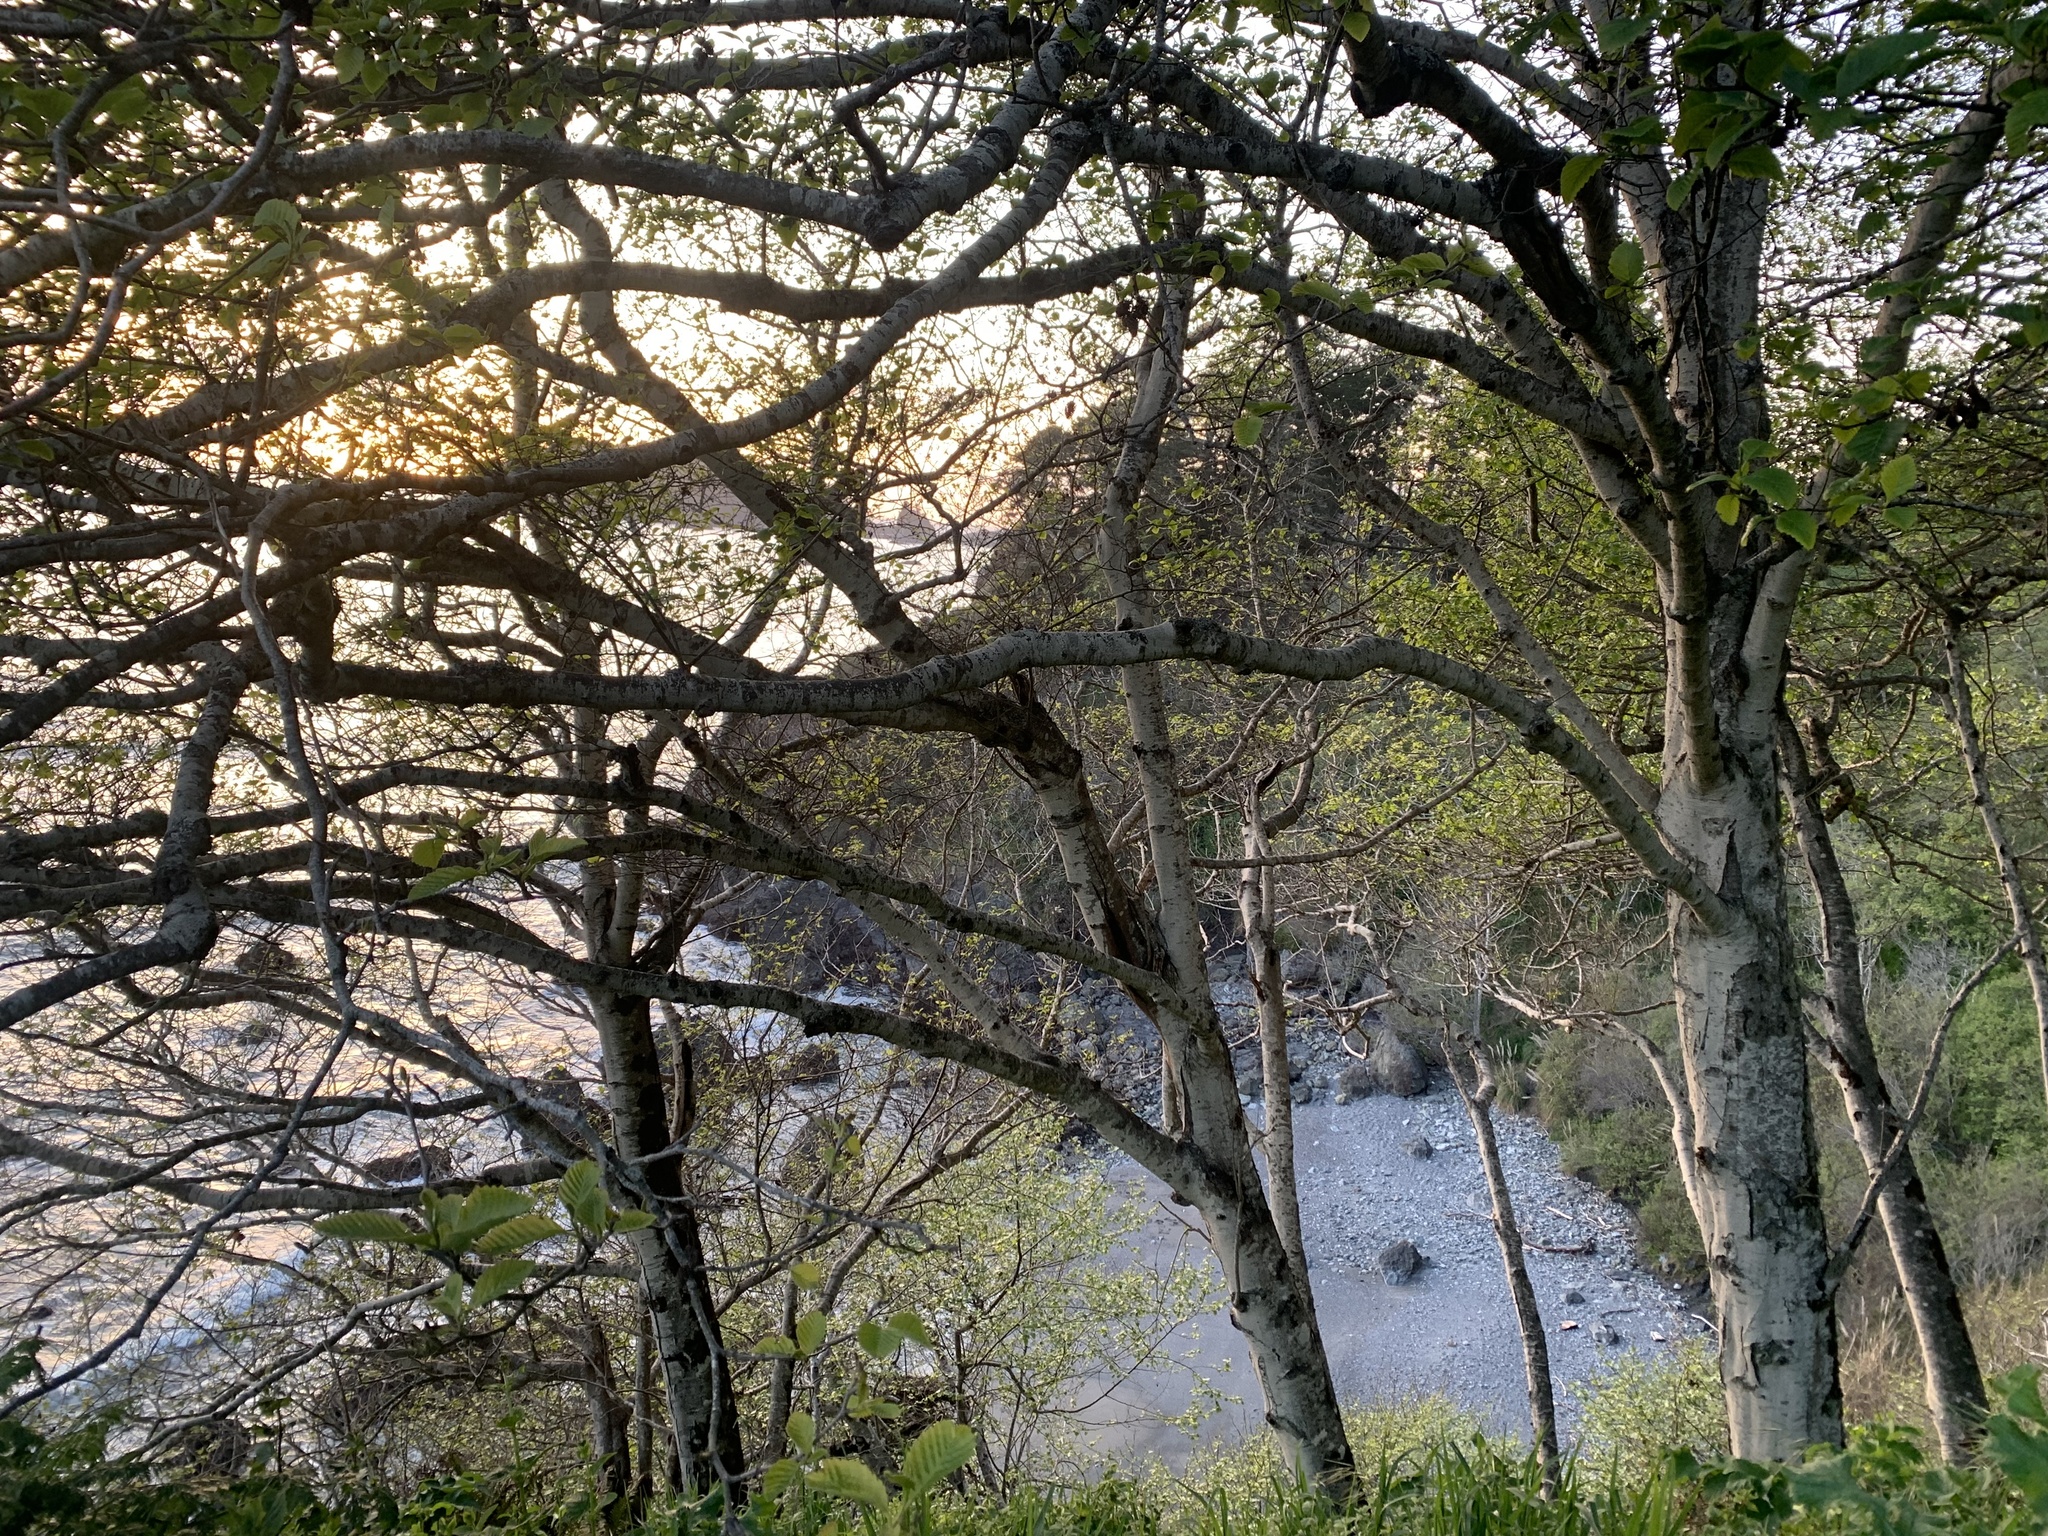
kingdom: Plantae
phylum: Tracheophyta
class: Magnoliopsida
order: Fagales
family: Betulaceae
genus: Alnus
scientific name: Alnus rubra
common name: Red alder
